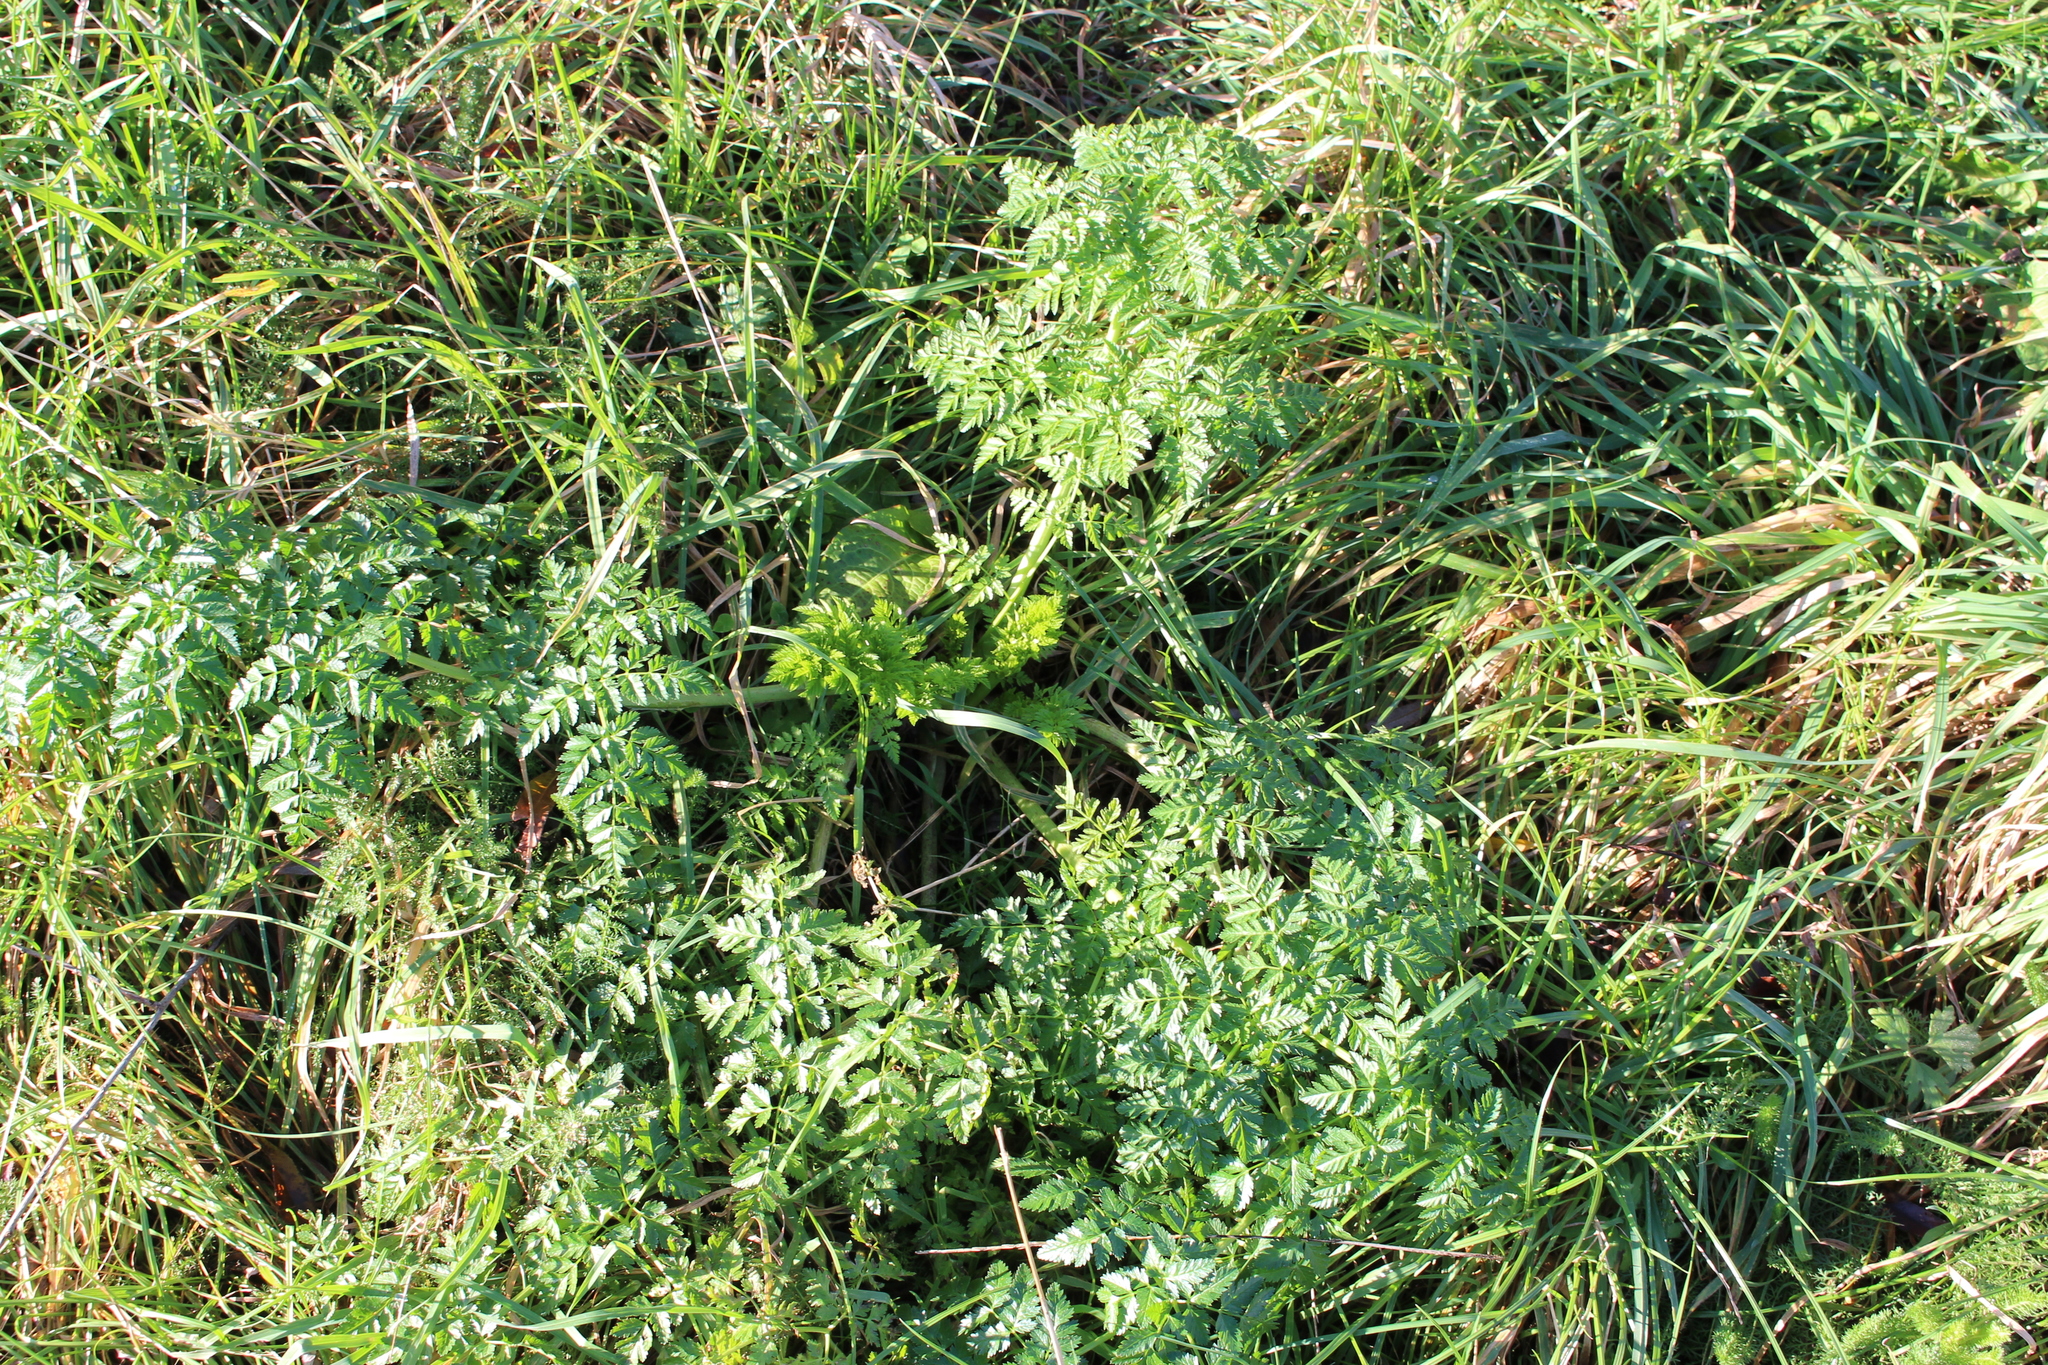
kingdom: Plantae
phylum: Tracheophyta
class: Magnoliopsida
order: Apiales
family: Apiaceae
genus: Conium
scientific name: Conium maculatum
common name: Hemlock
